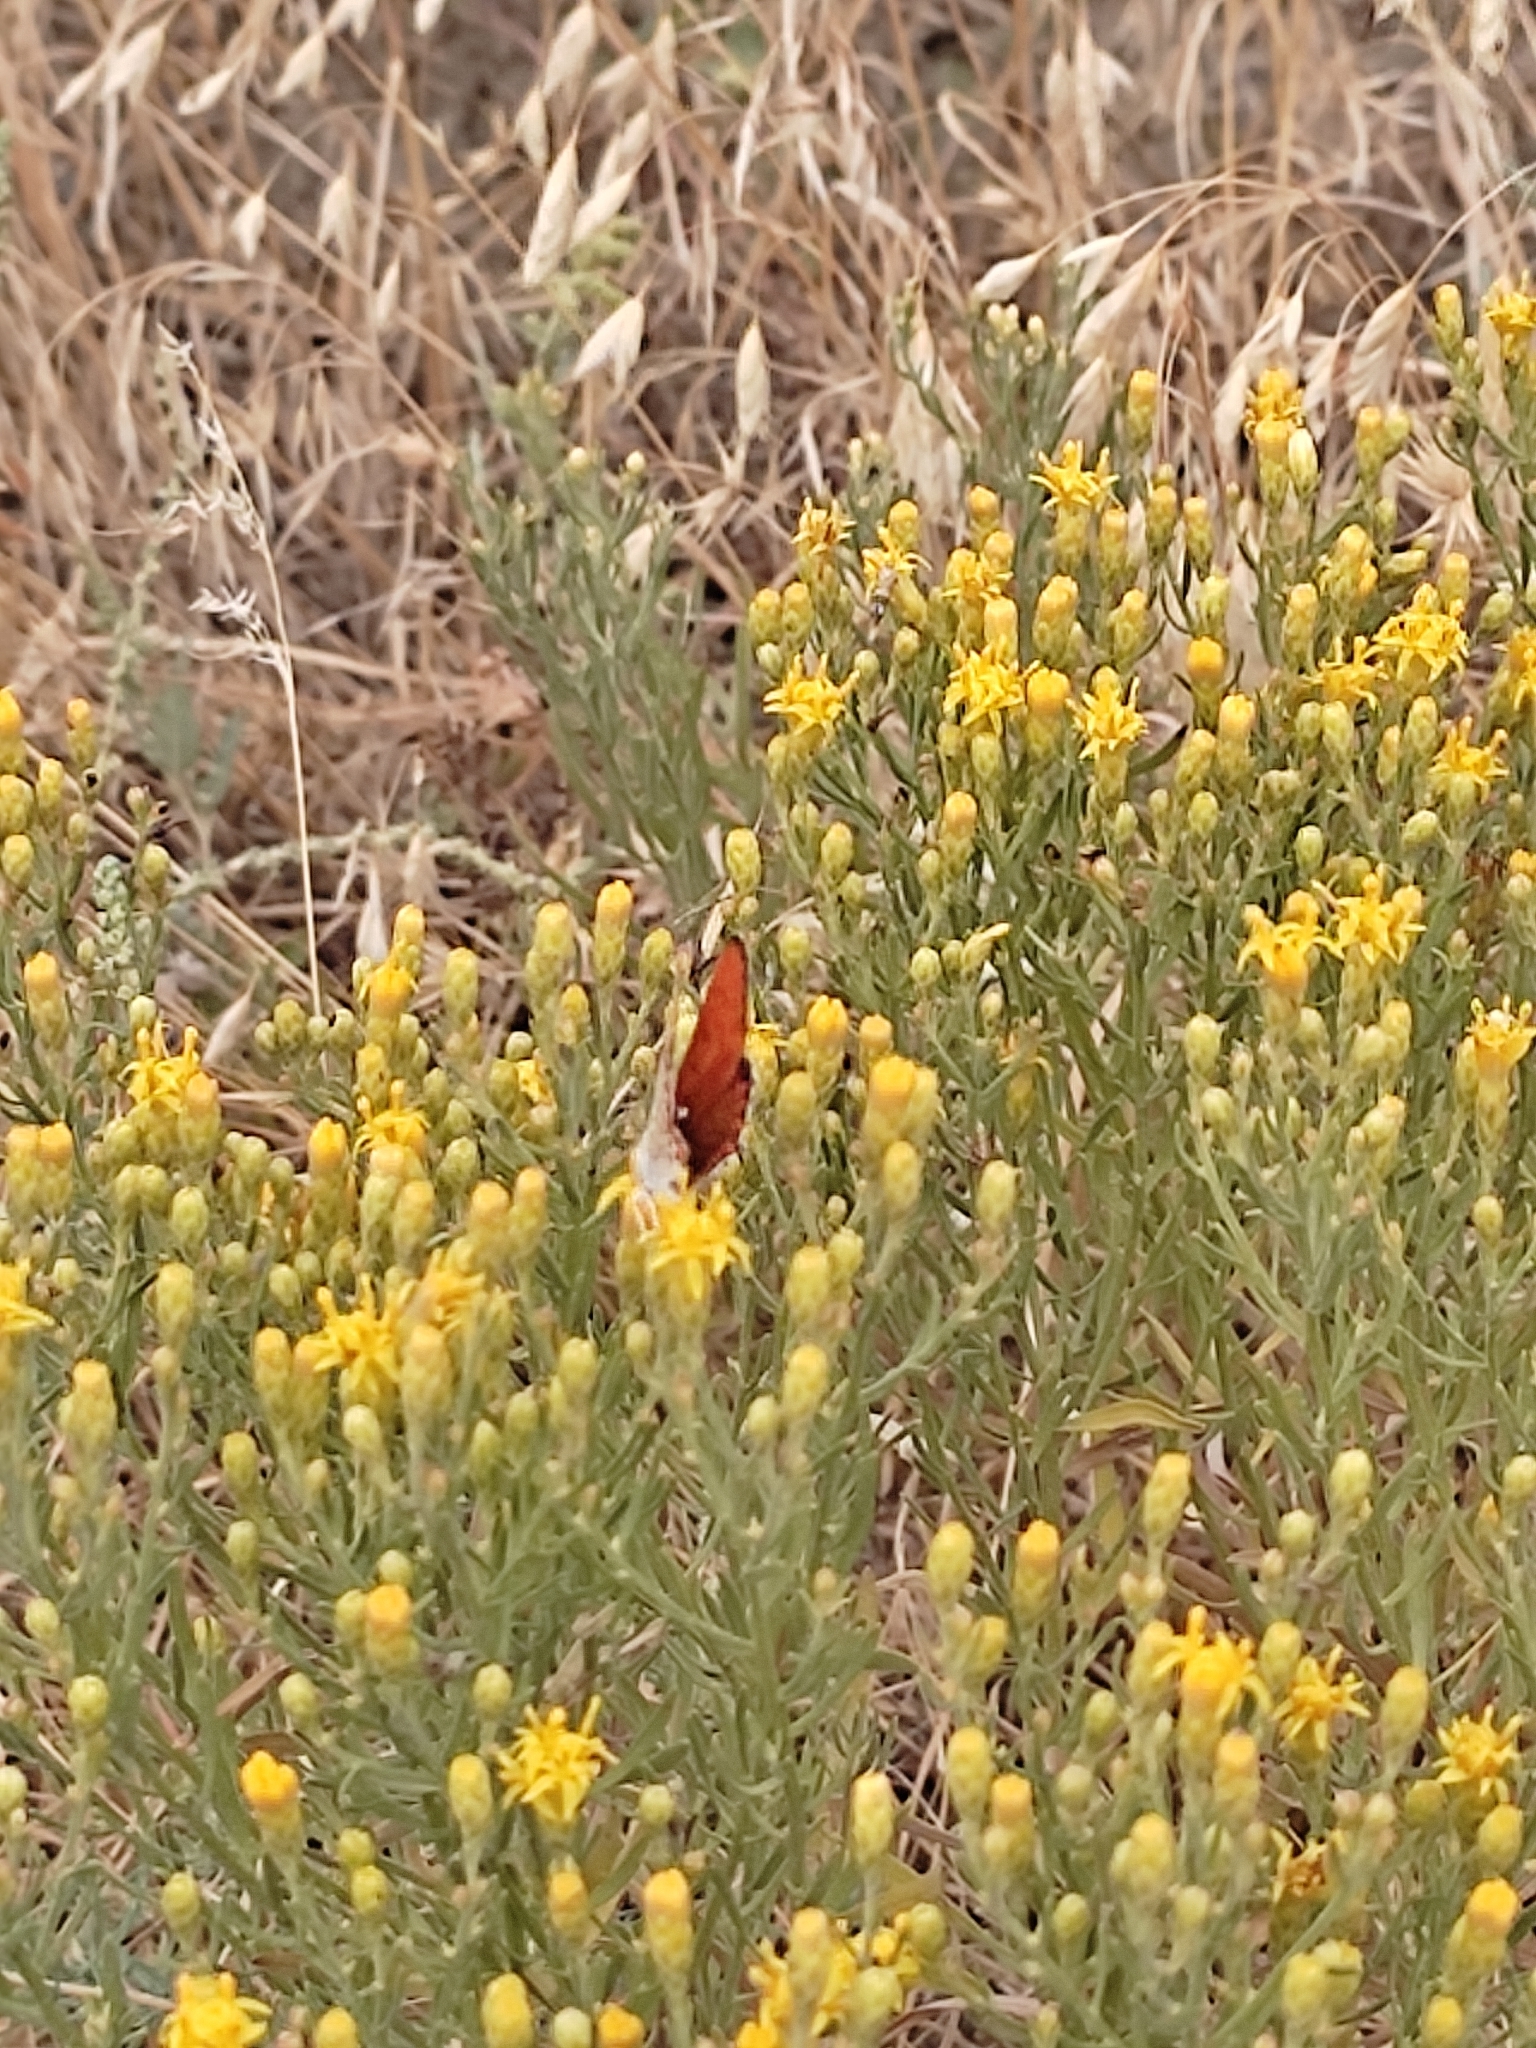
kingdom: Animalia
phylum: Arthropoda
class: Insecta
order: Lepidoptera
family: Lycaenidae
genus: Thersamonia
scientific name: Thersamonia thersamon
